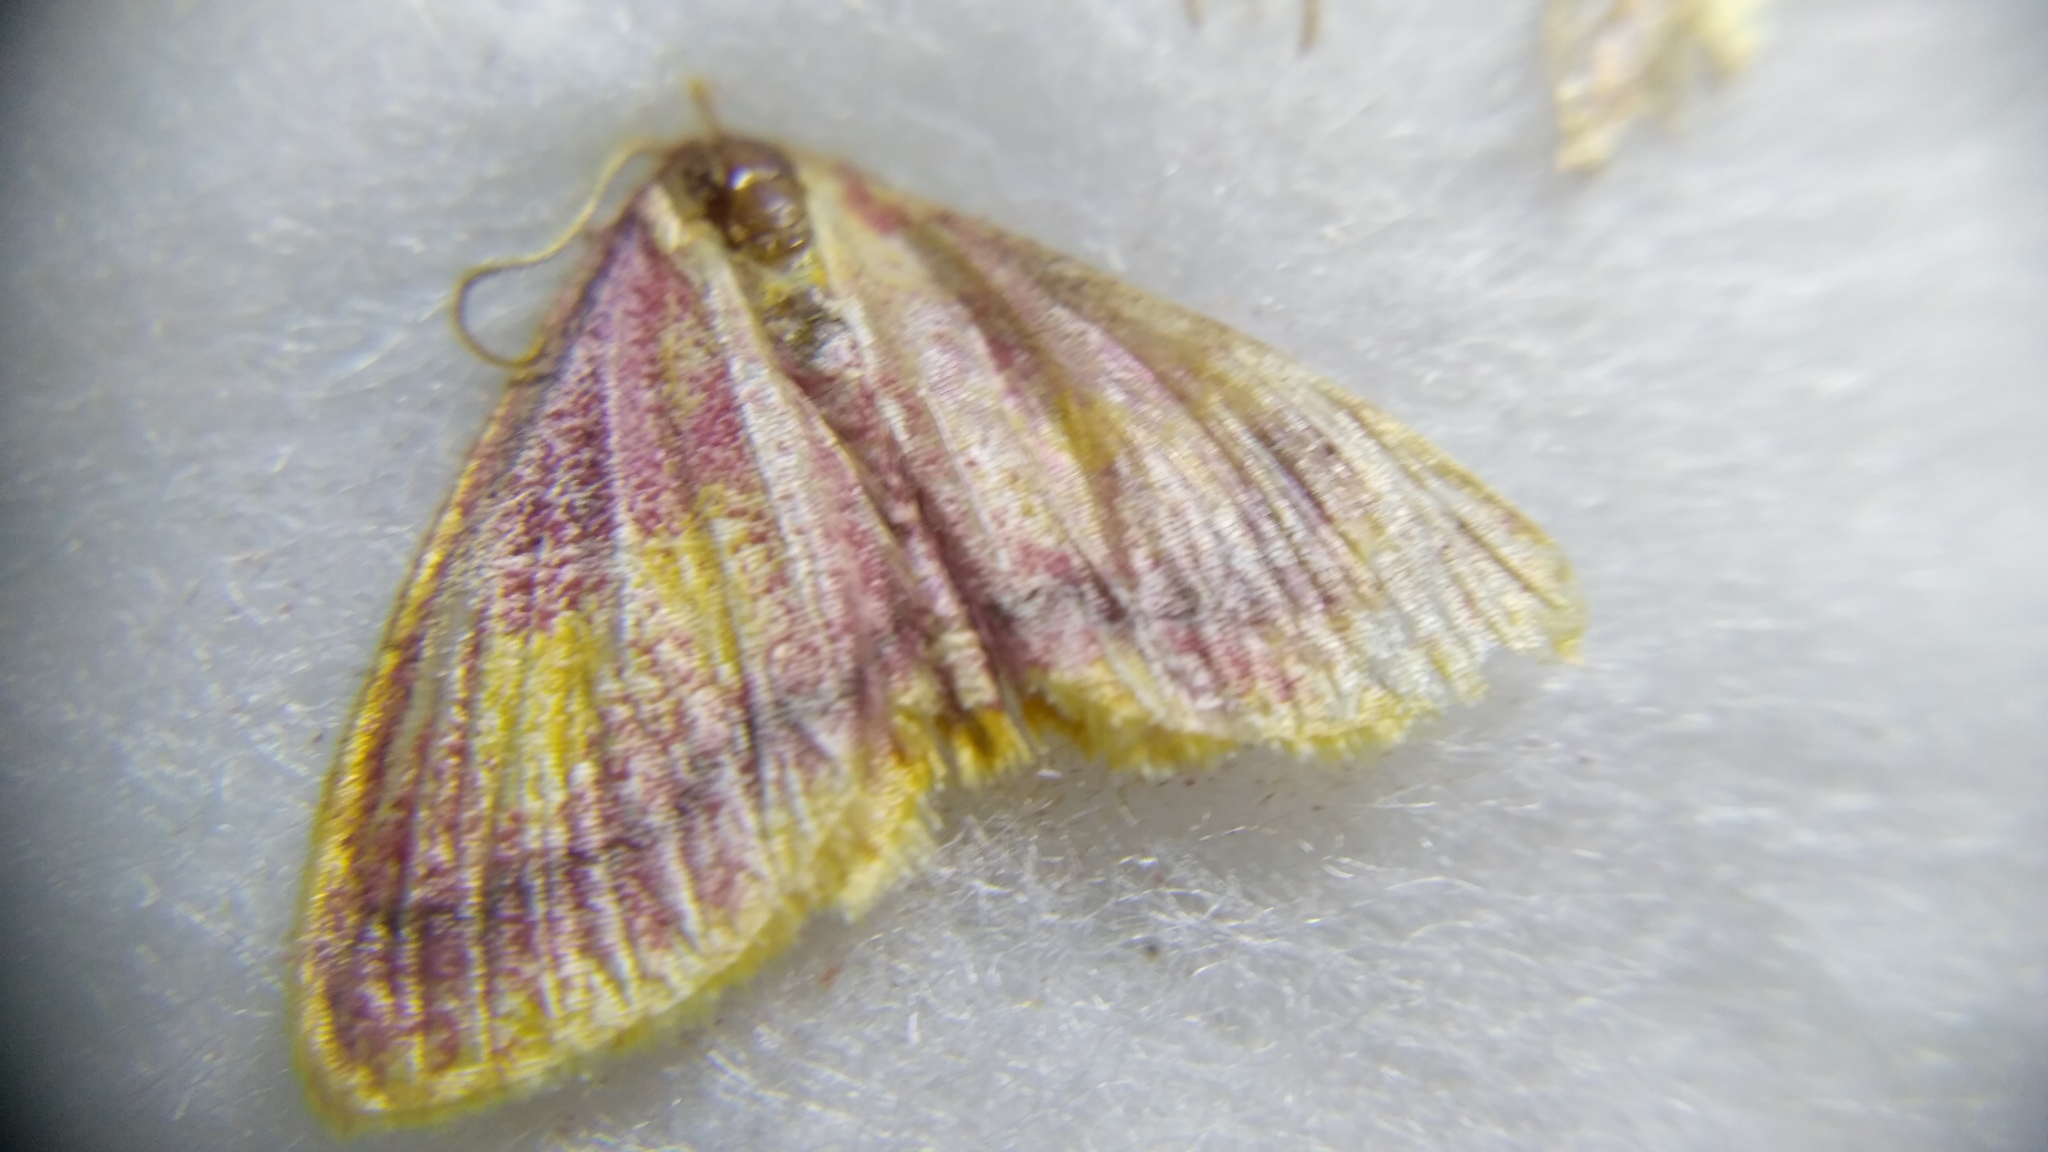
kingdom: Animalia
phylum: Arthropoda
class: Insecta
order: Lepidoptera
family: Geometridae
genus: Idaea
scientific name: Idaea muricata
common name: Purple-bordered gold
